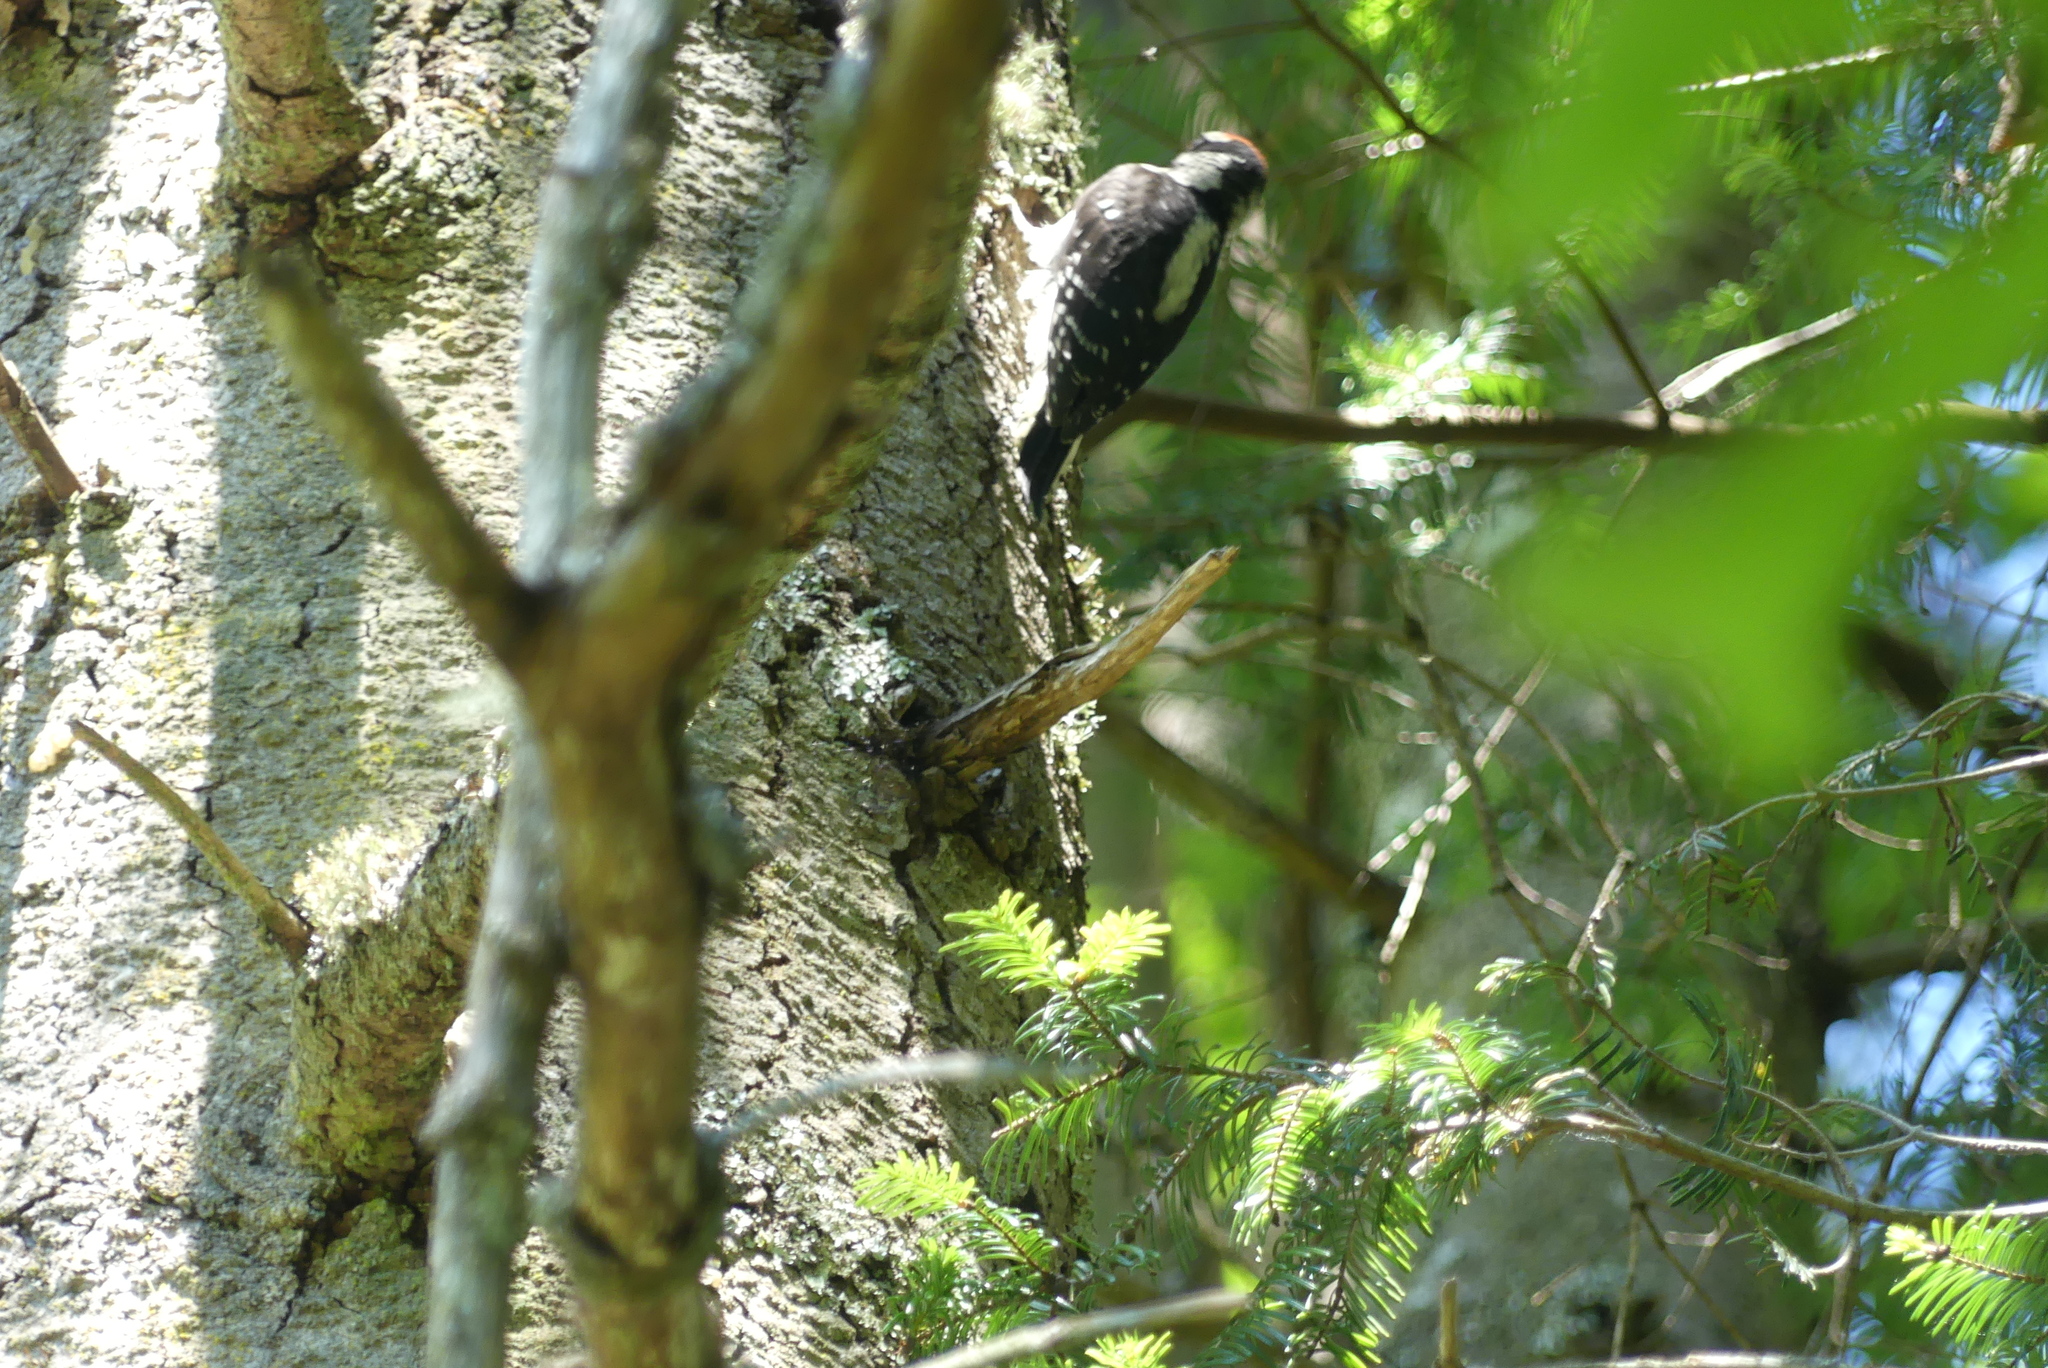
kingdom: Animalia
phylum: Chordata
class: Aves
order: Piciformes
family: Picidae
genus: Dryobates
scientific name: Dryobates pubescens
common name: Downy woodpecker
